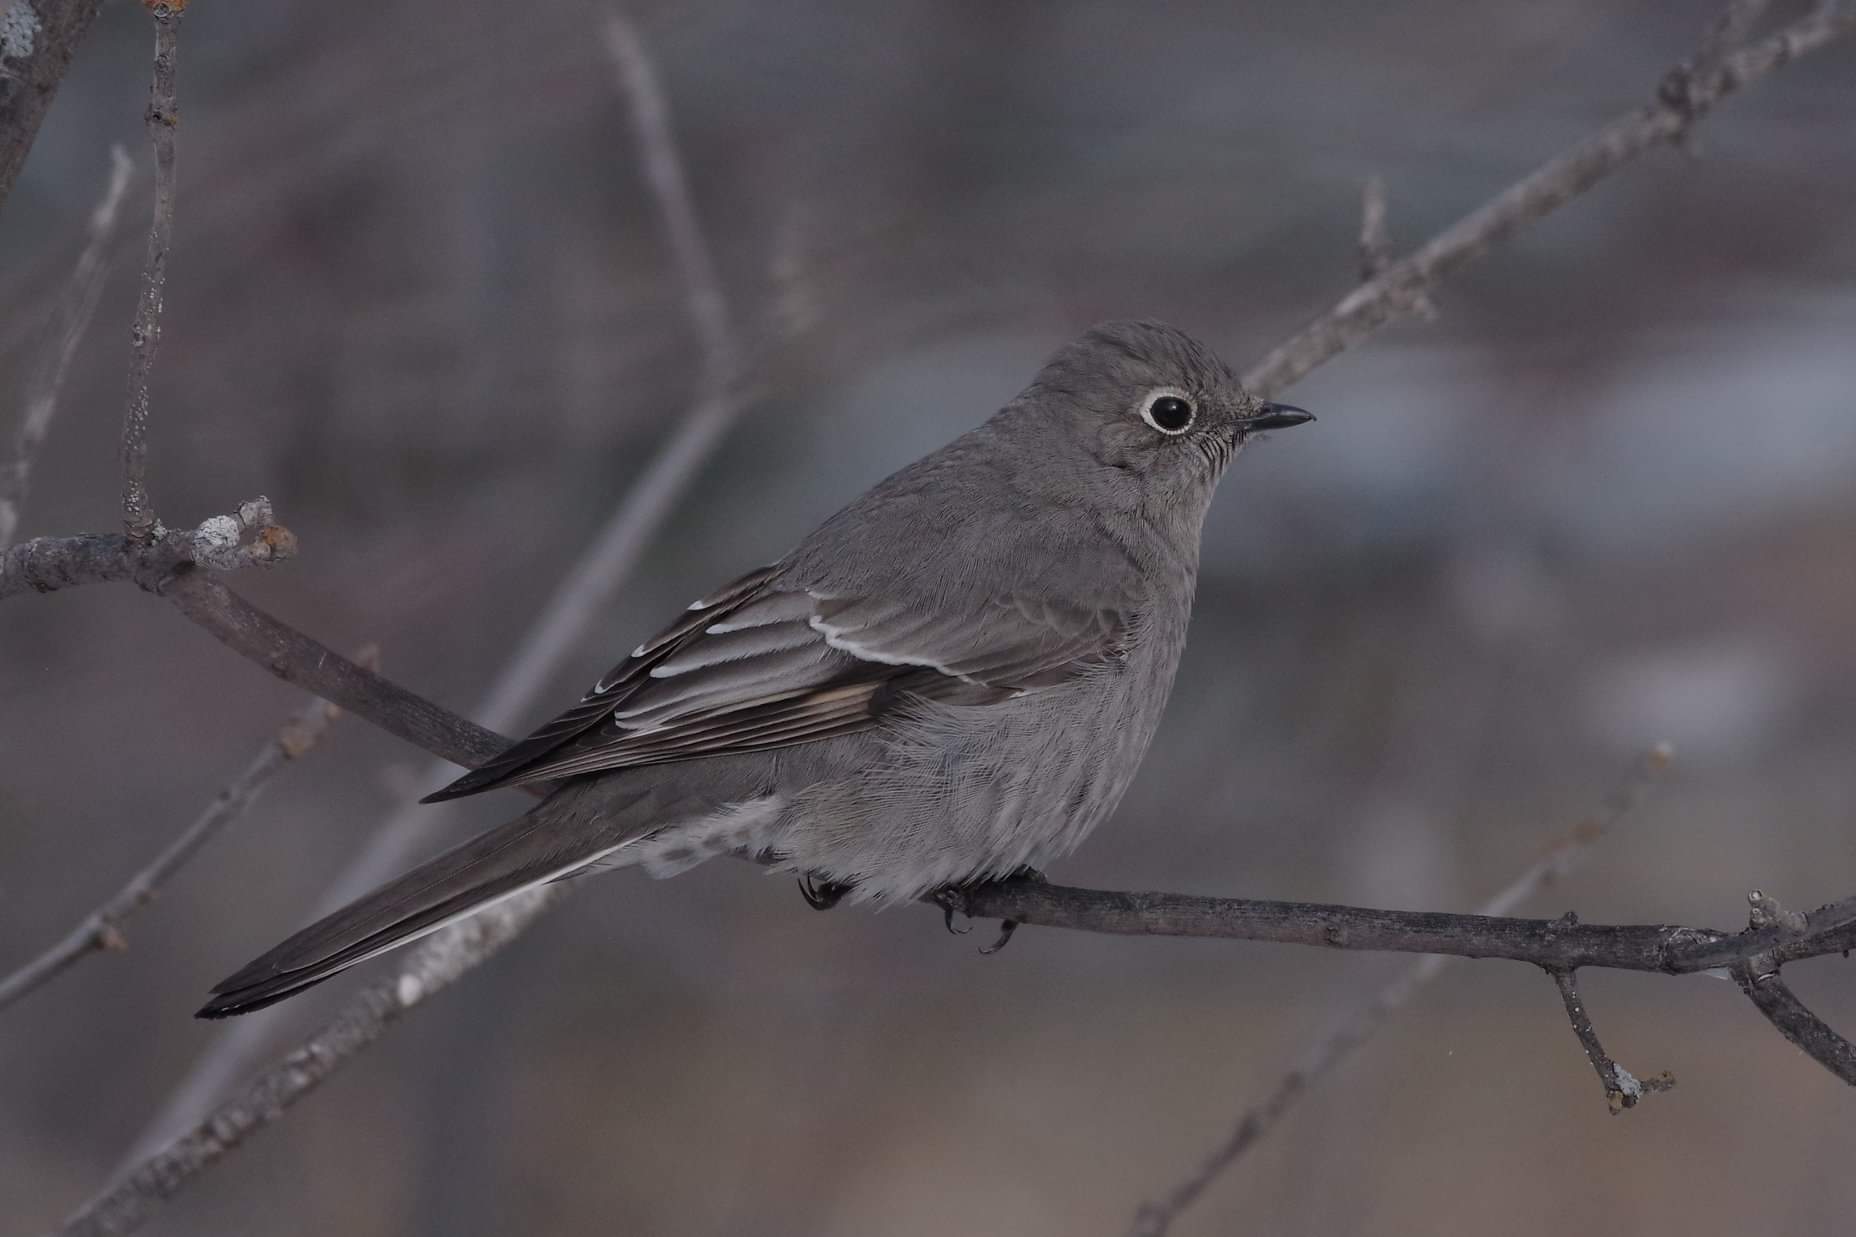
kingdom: Animalia
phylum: Chordata
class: Aves
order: Passeriformes
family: Turdidae
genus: Myadestes
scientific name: Myadestes townsendi
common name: Townsend's solitaire
